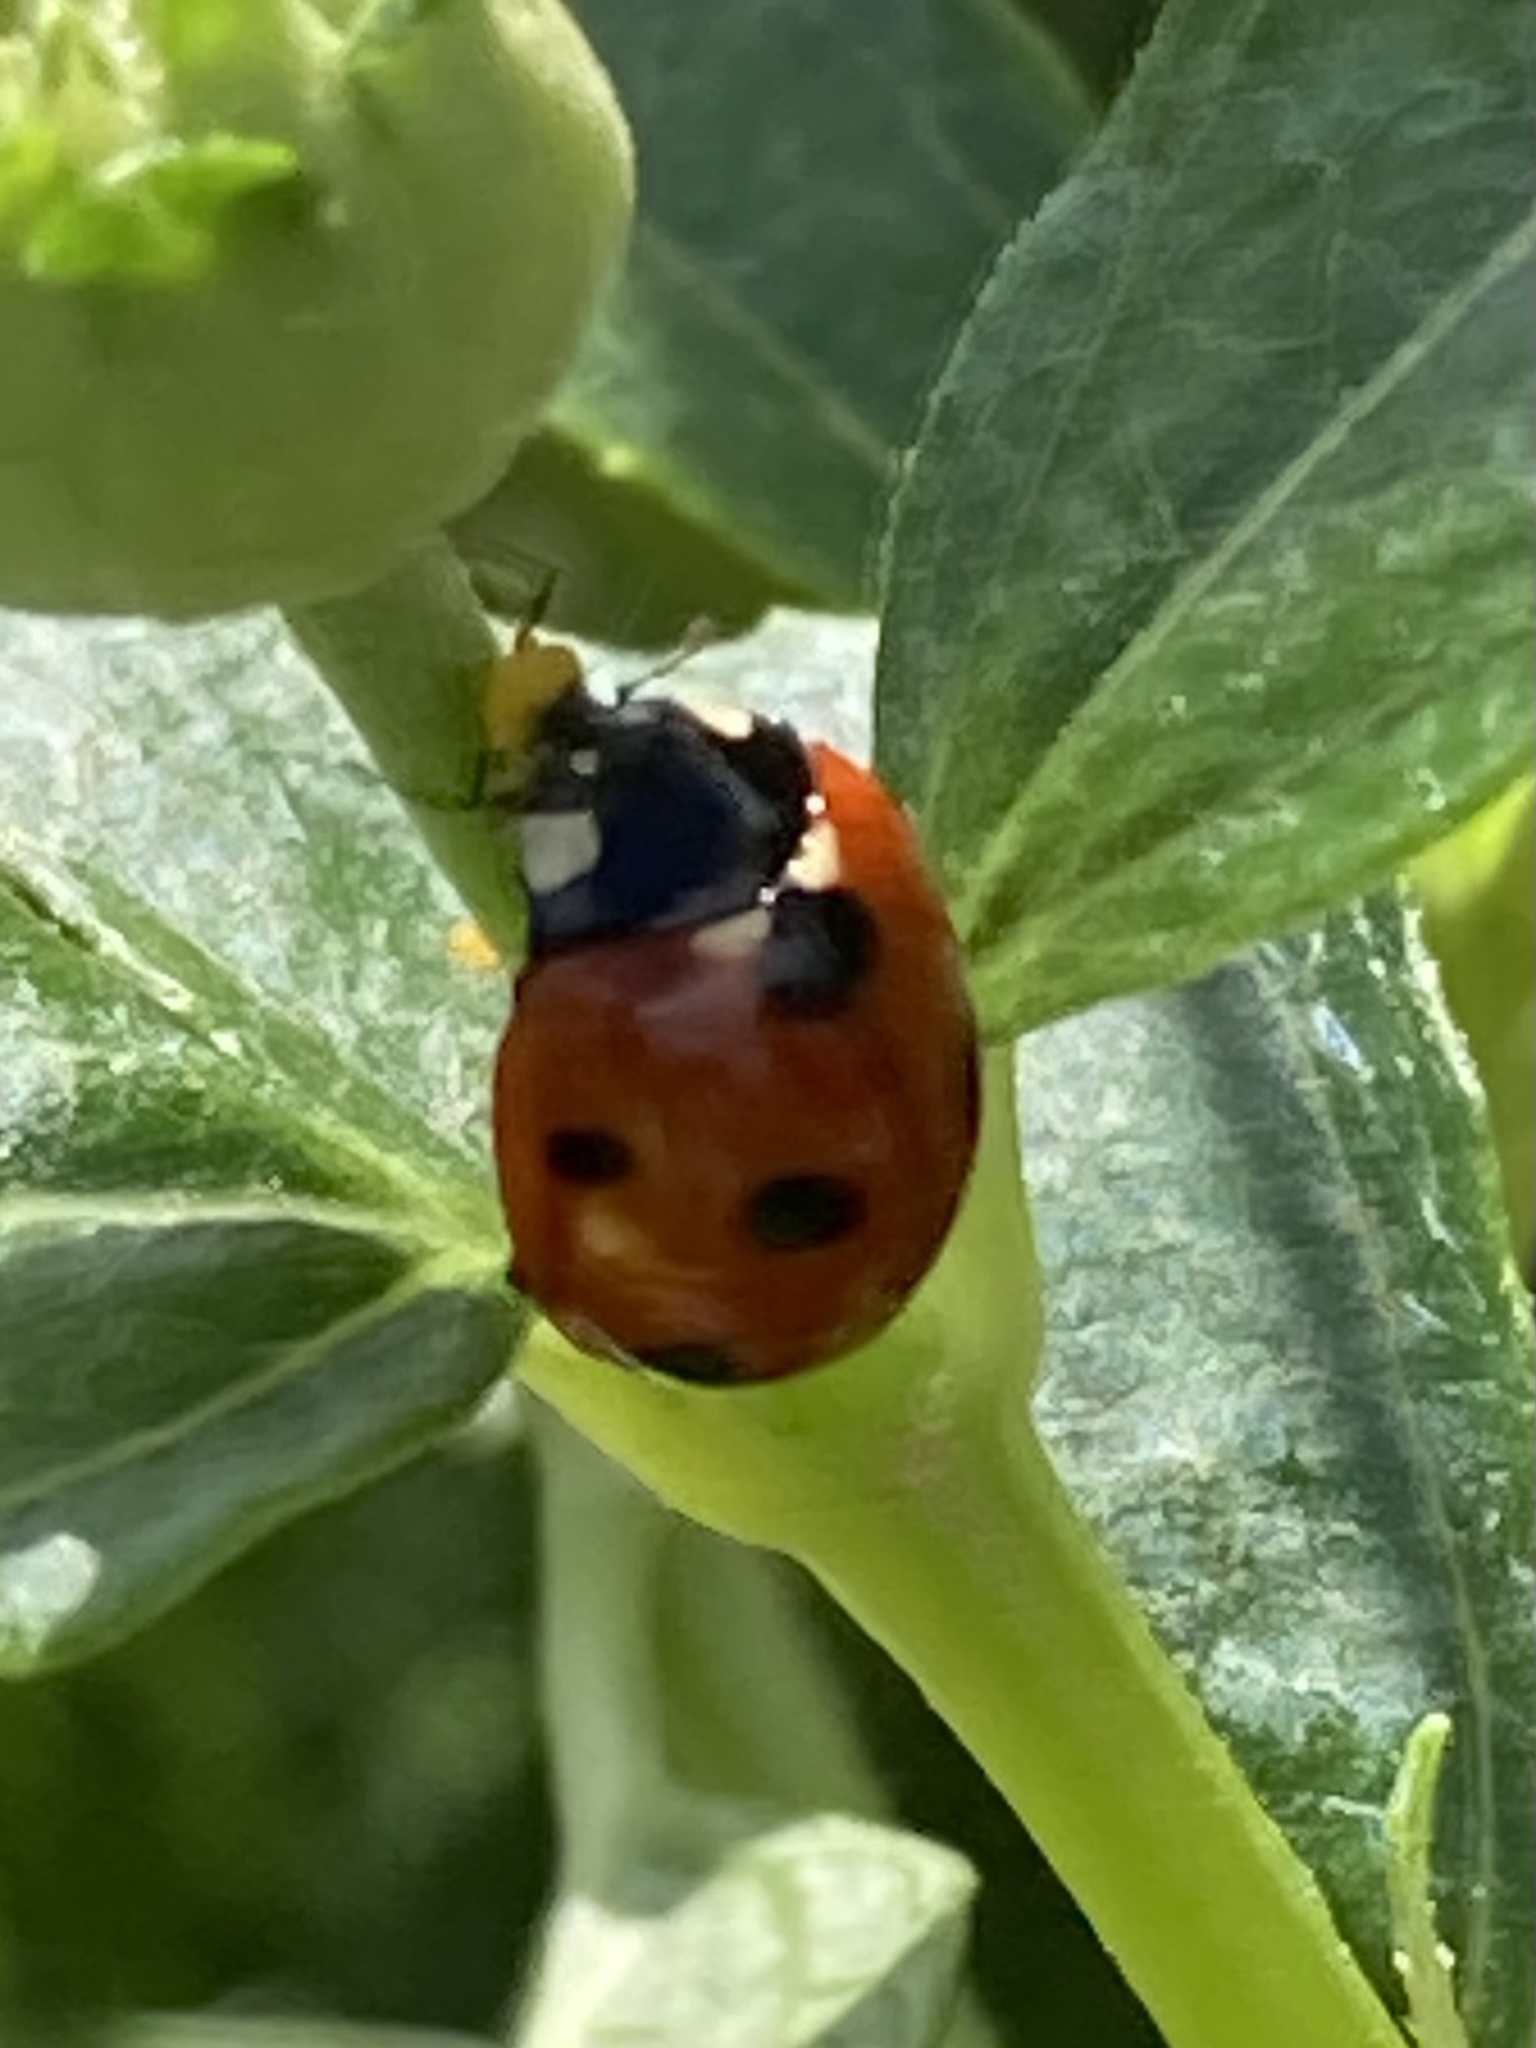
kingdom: Animalia
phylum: Arthropoda
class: Insecta
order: Coleoptera
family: Coccinellidae
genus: Coccinella
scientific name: Coccinella septempunctata
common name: Sevenspotted lady beetle
